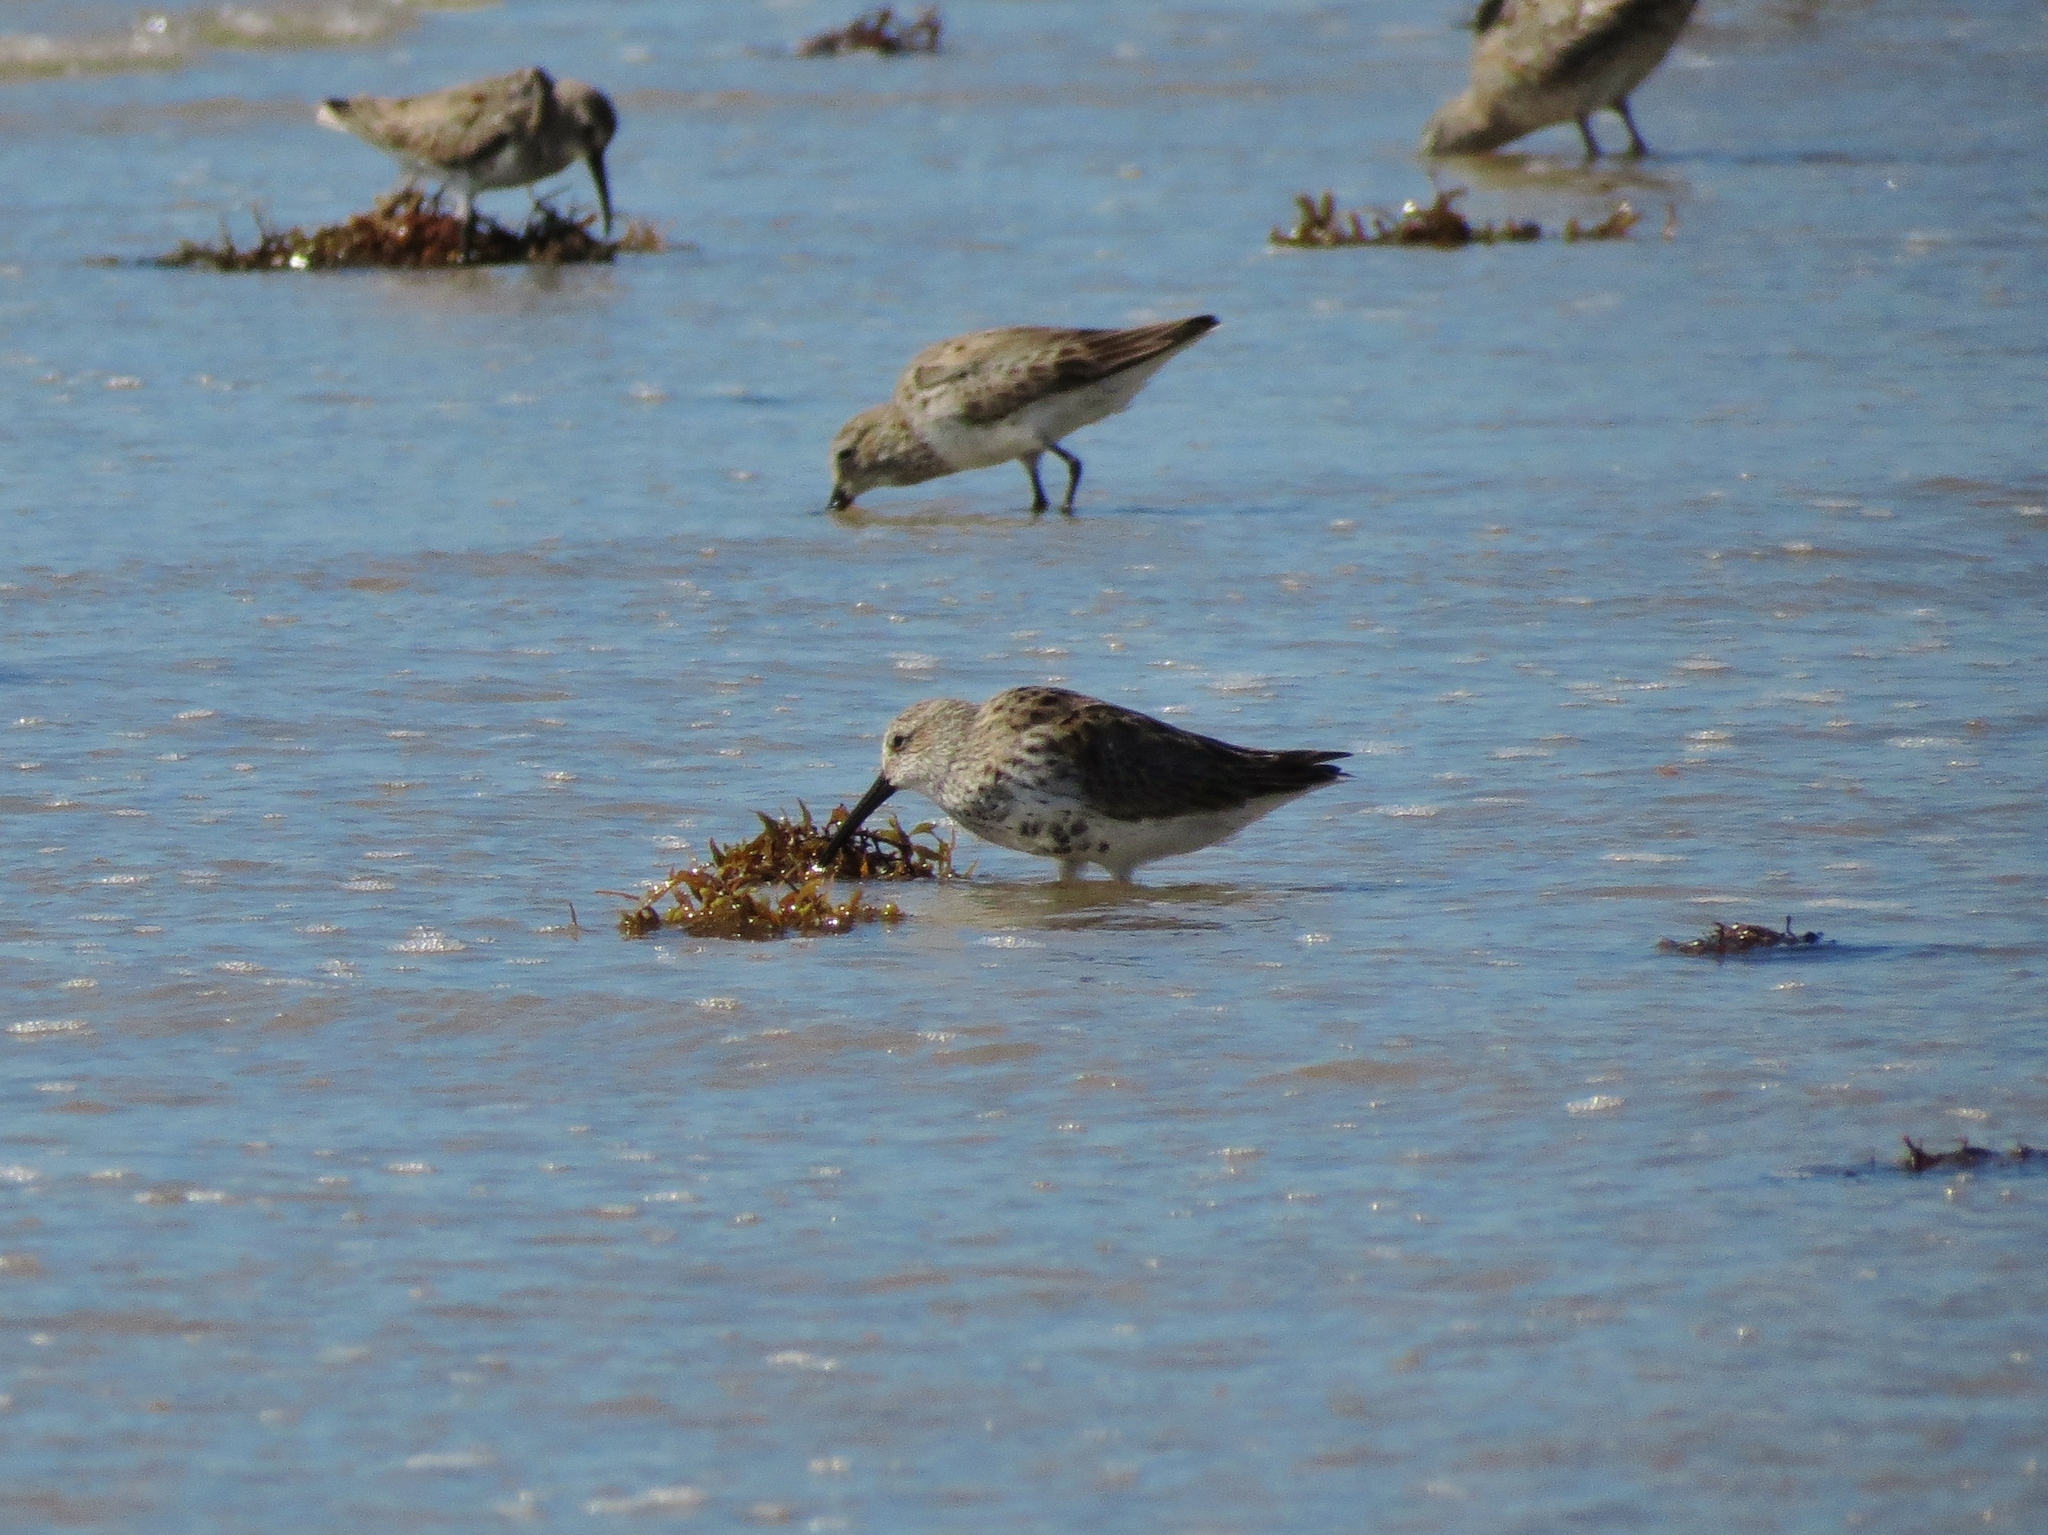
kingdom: Animalia
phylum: Chordata
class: Aves
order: Charadriiformes
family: Scolopacidae
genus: Calidris
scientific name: Calidris alpina
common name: Dunlin
